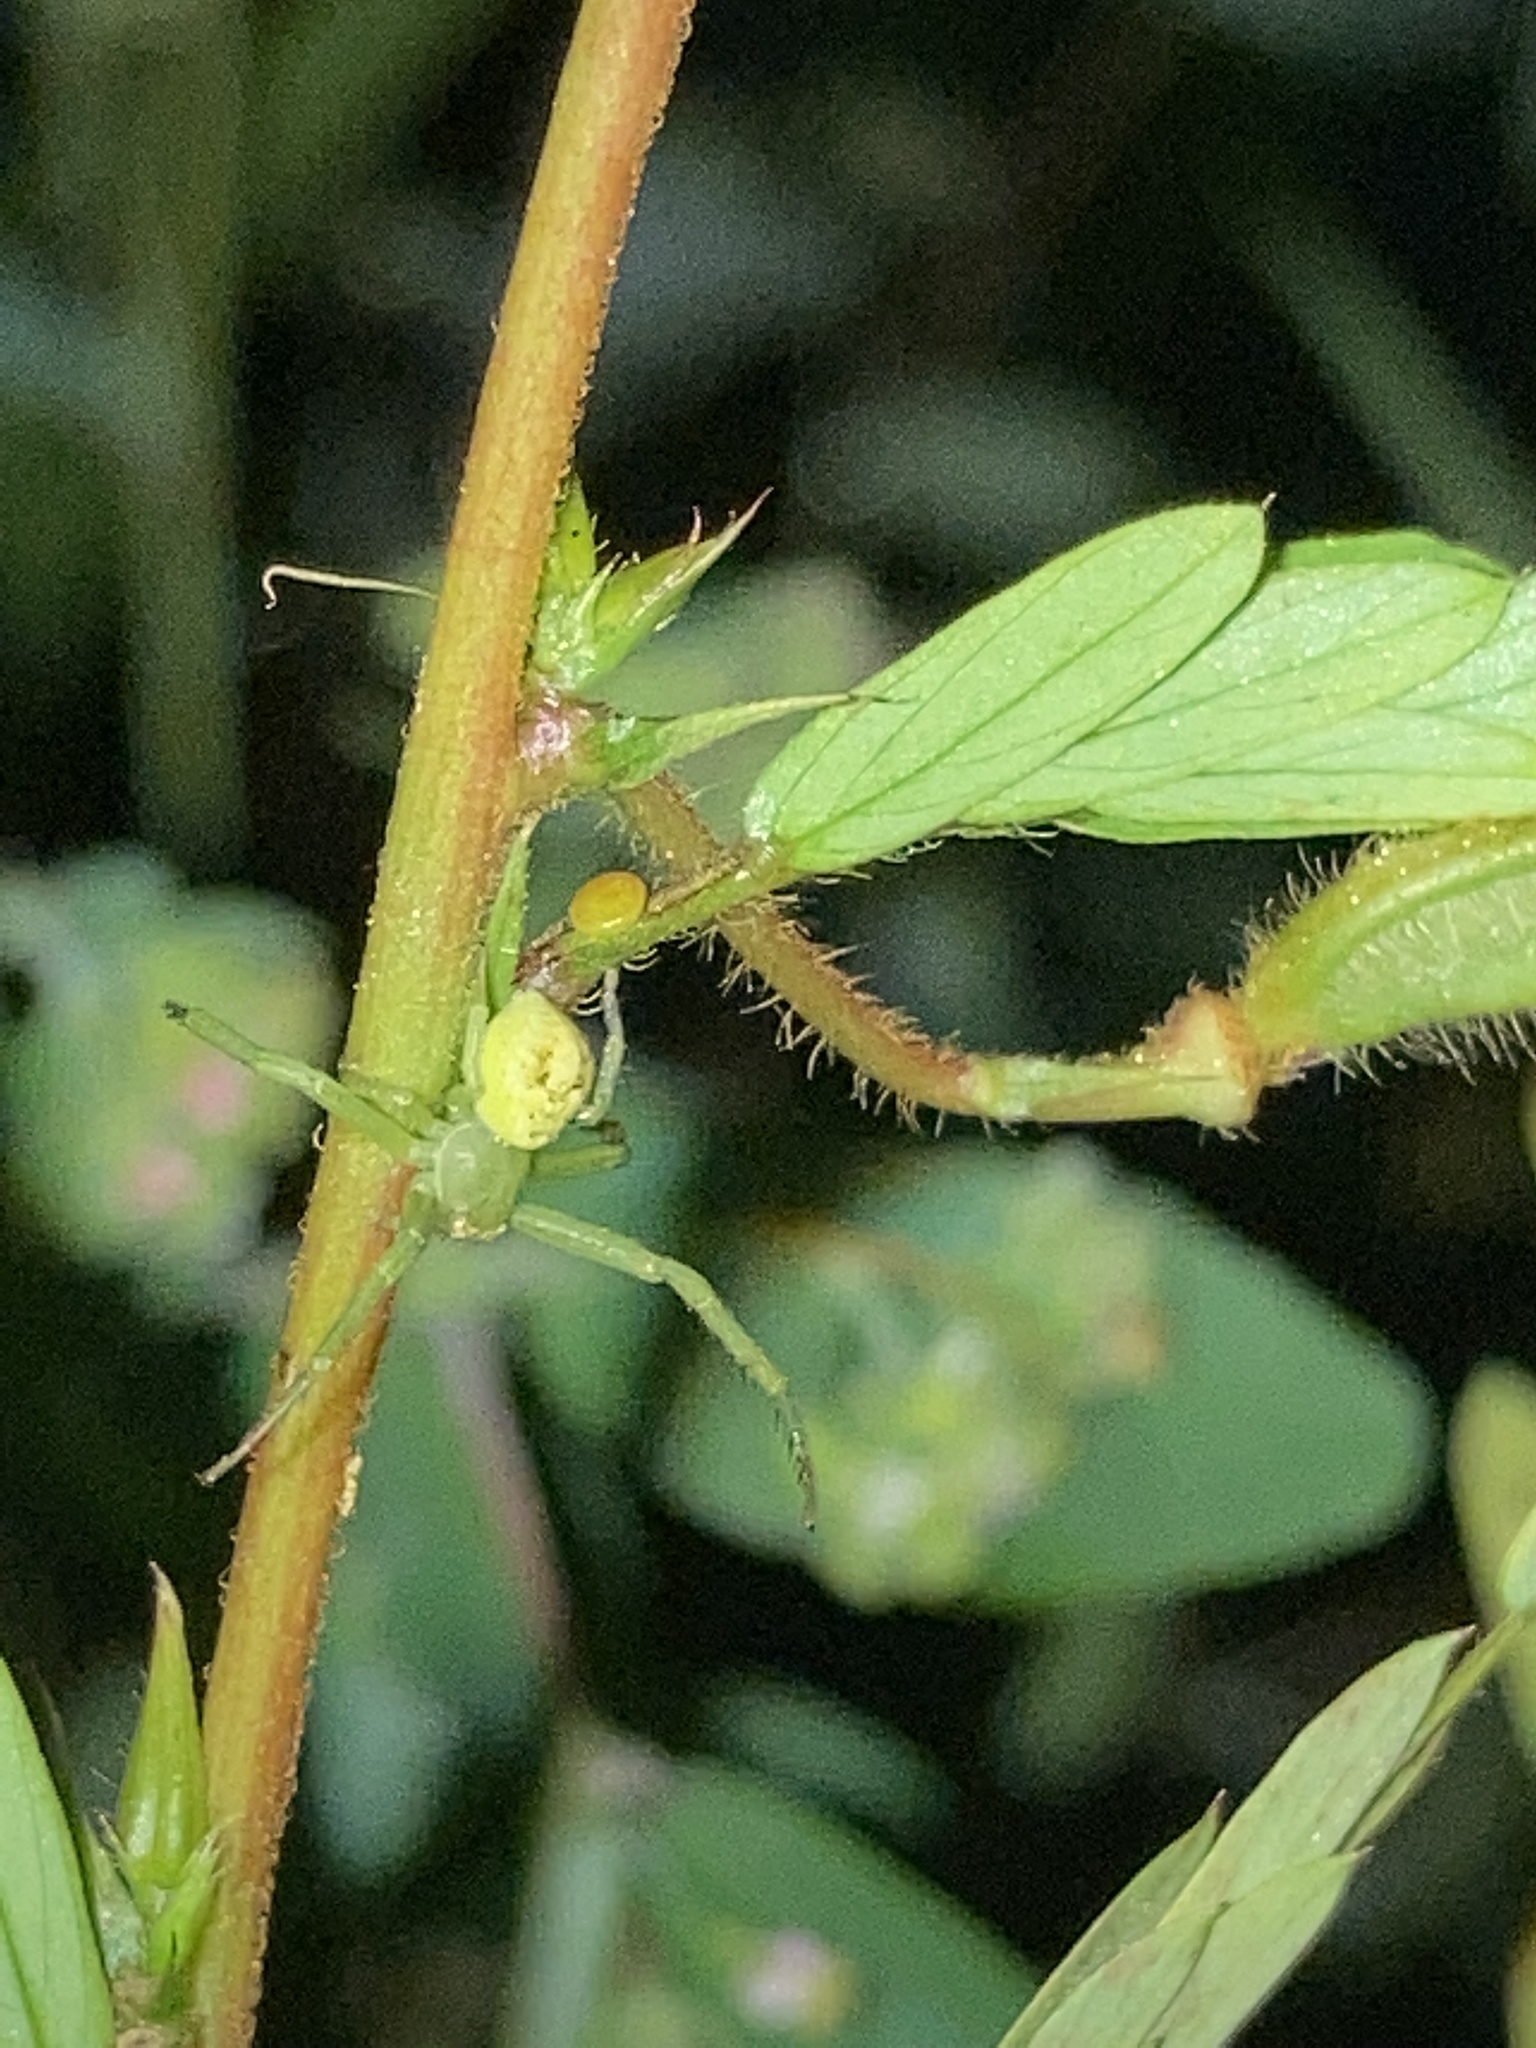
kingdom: Animalia
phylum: Arthropoda
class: Arachnida
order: Araneae
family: Thomisidae
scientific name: Thomisidae
